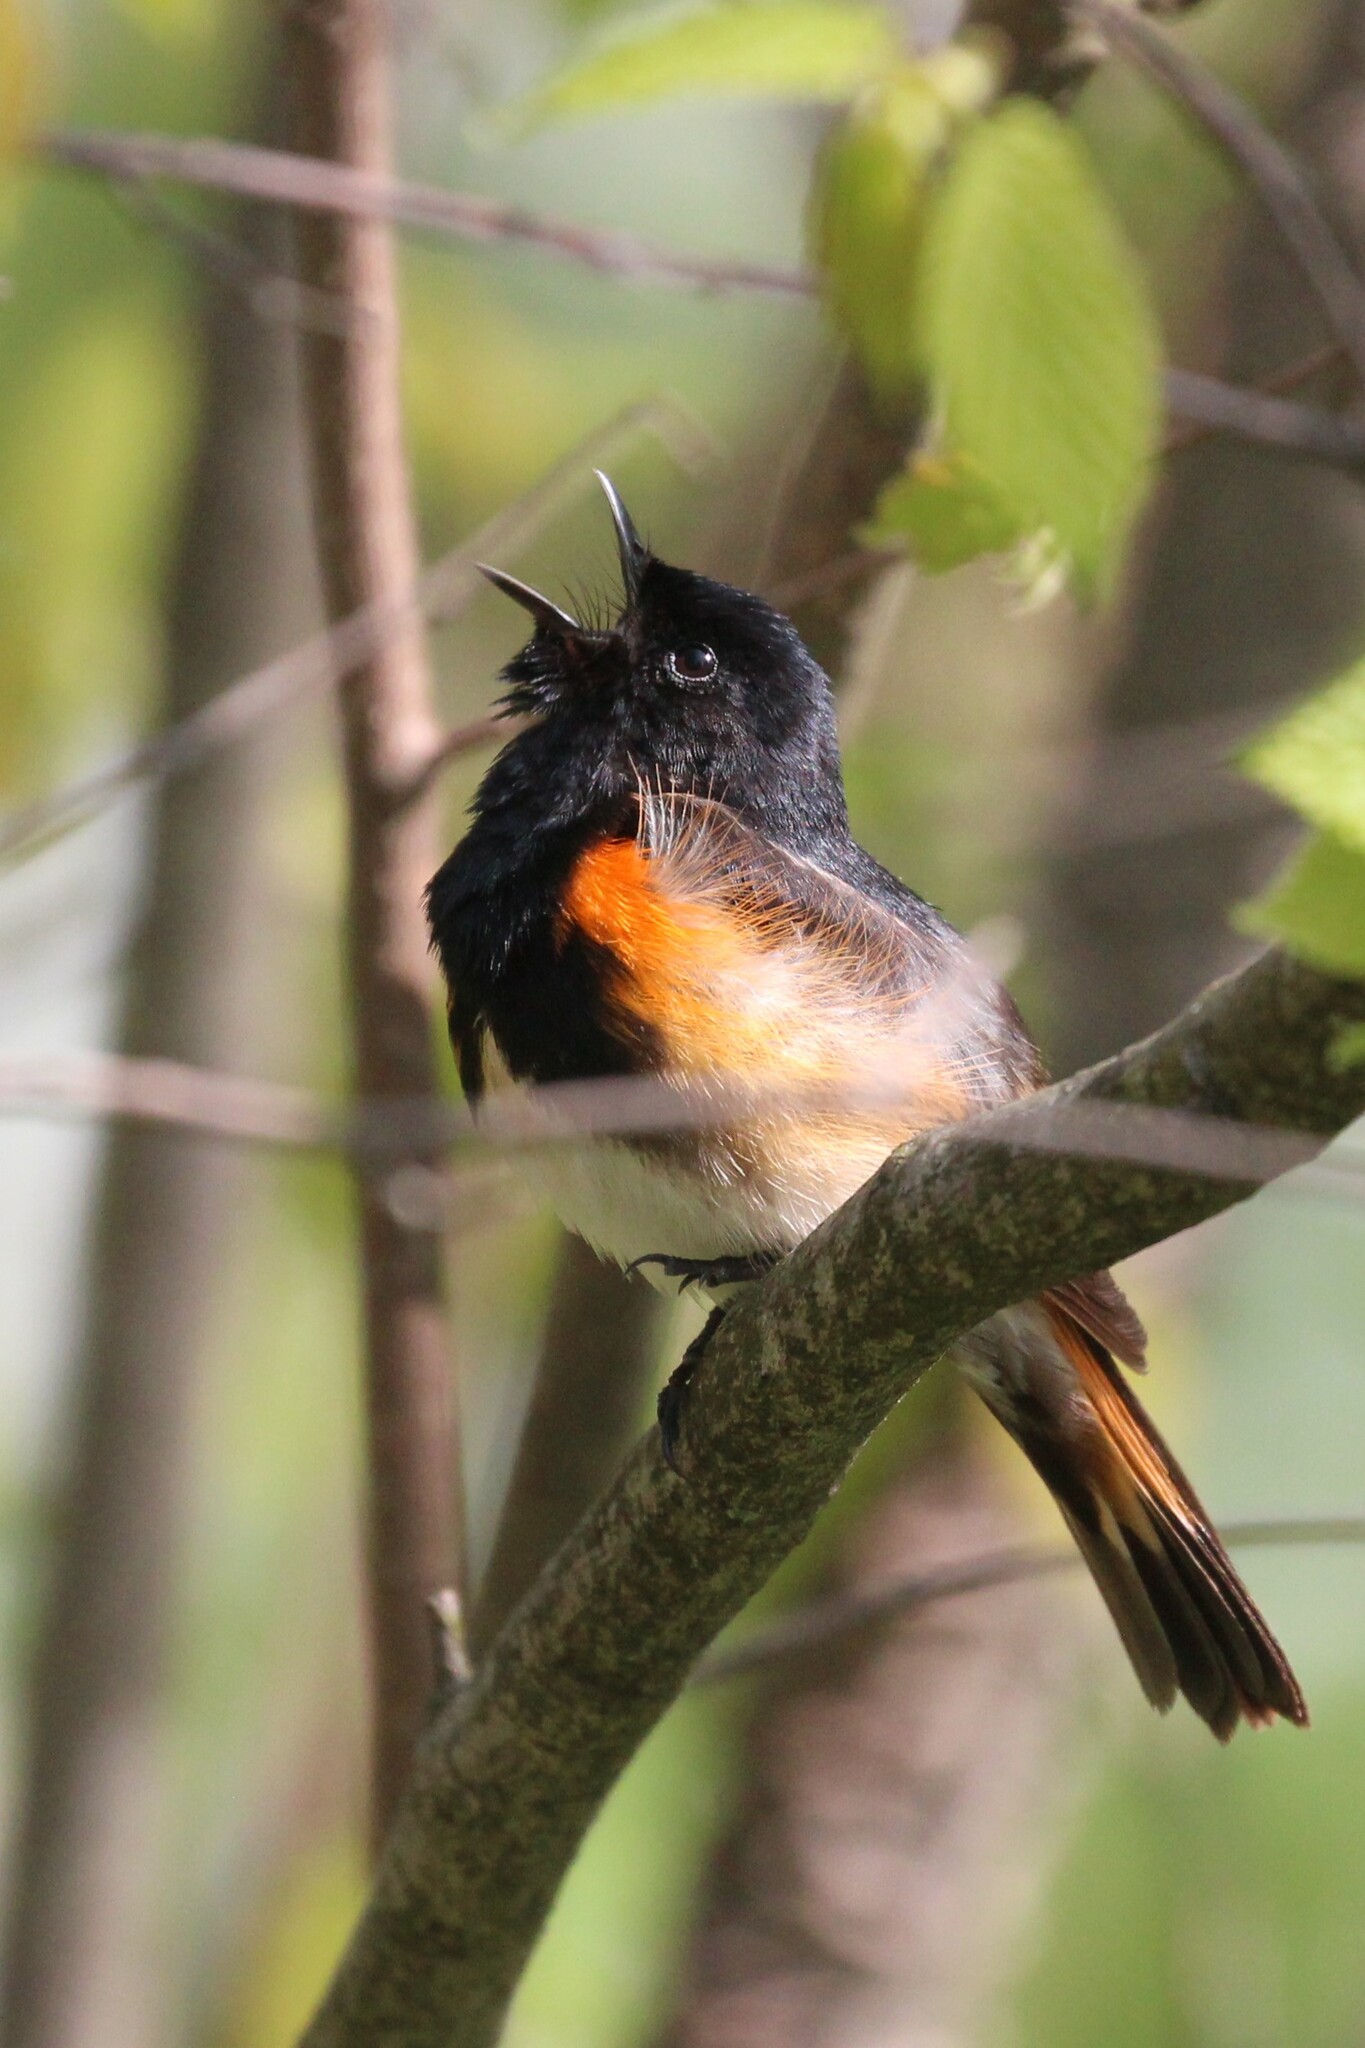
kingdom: Animalia
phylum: Chordata
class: Aves
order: Passeriformes
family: Parulidae
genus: Setophaga
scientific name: Setophaga ruticilla
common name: American redstart
